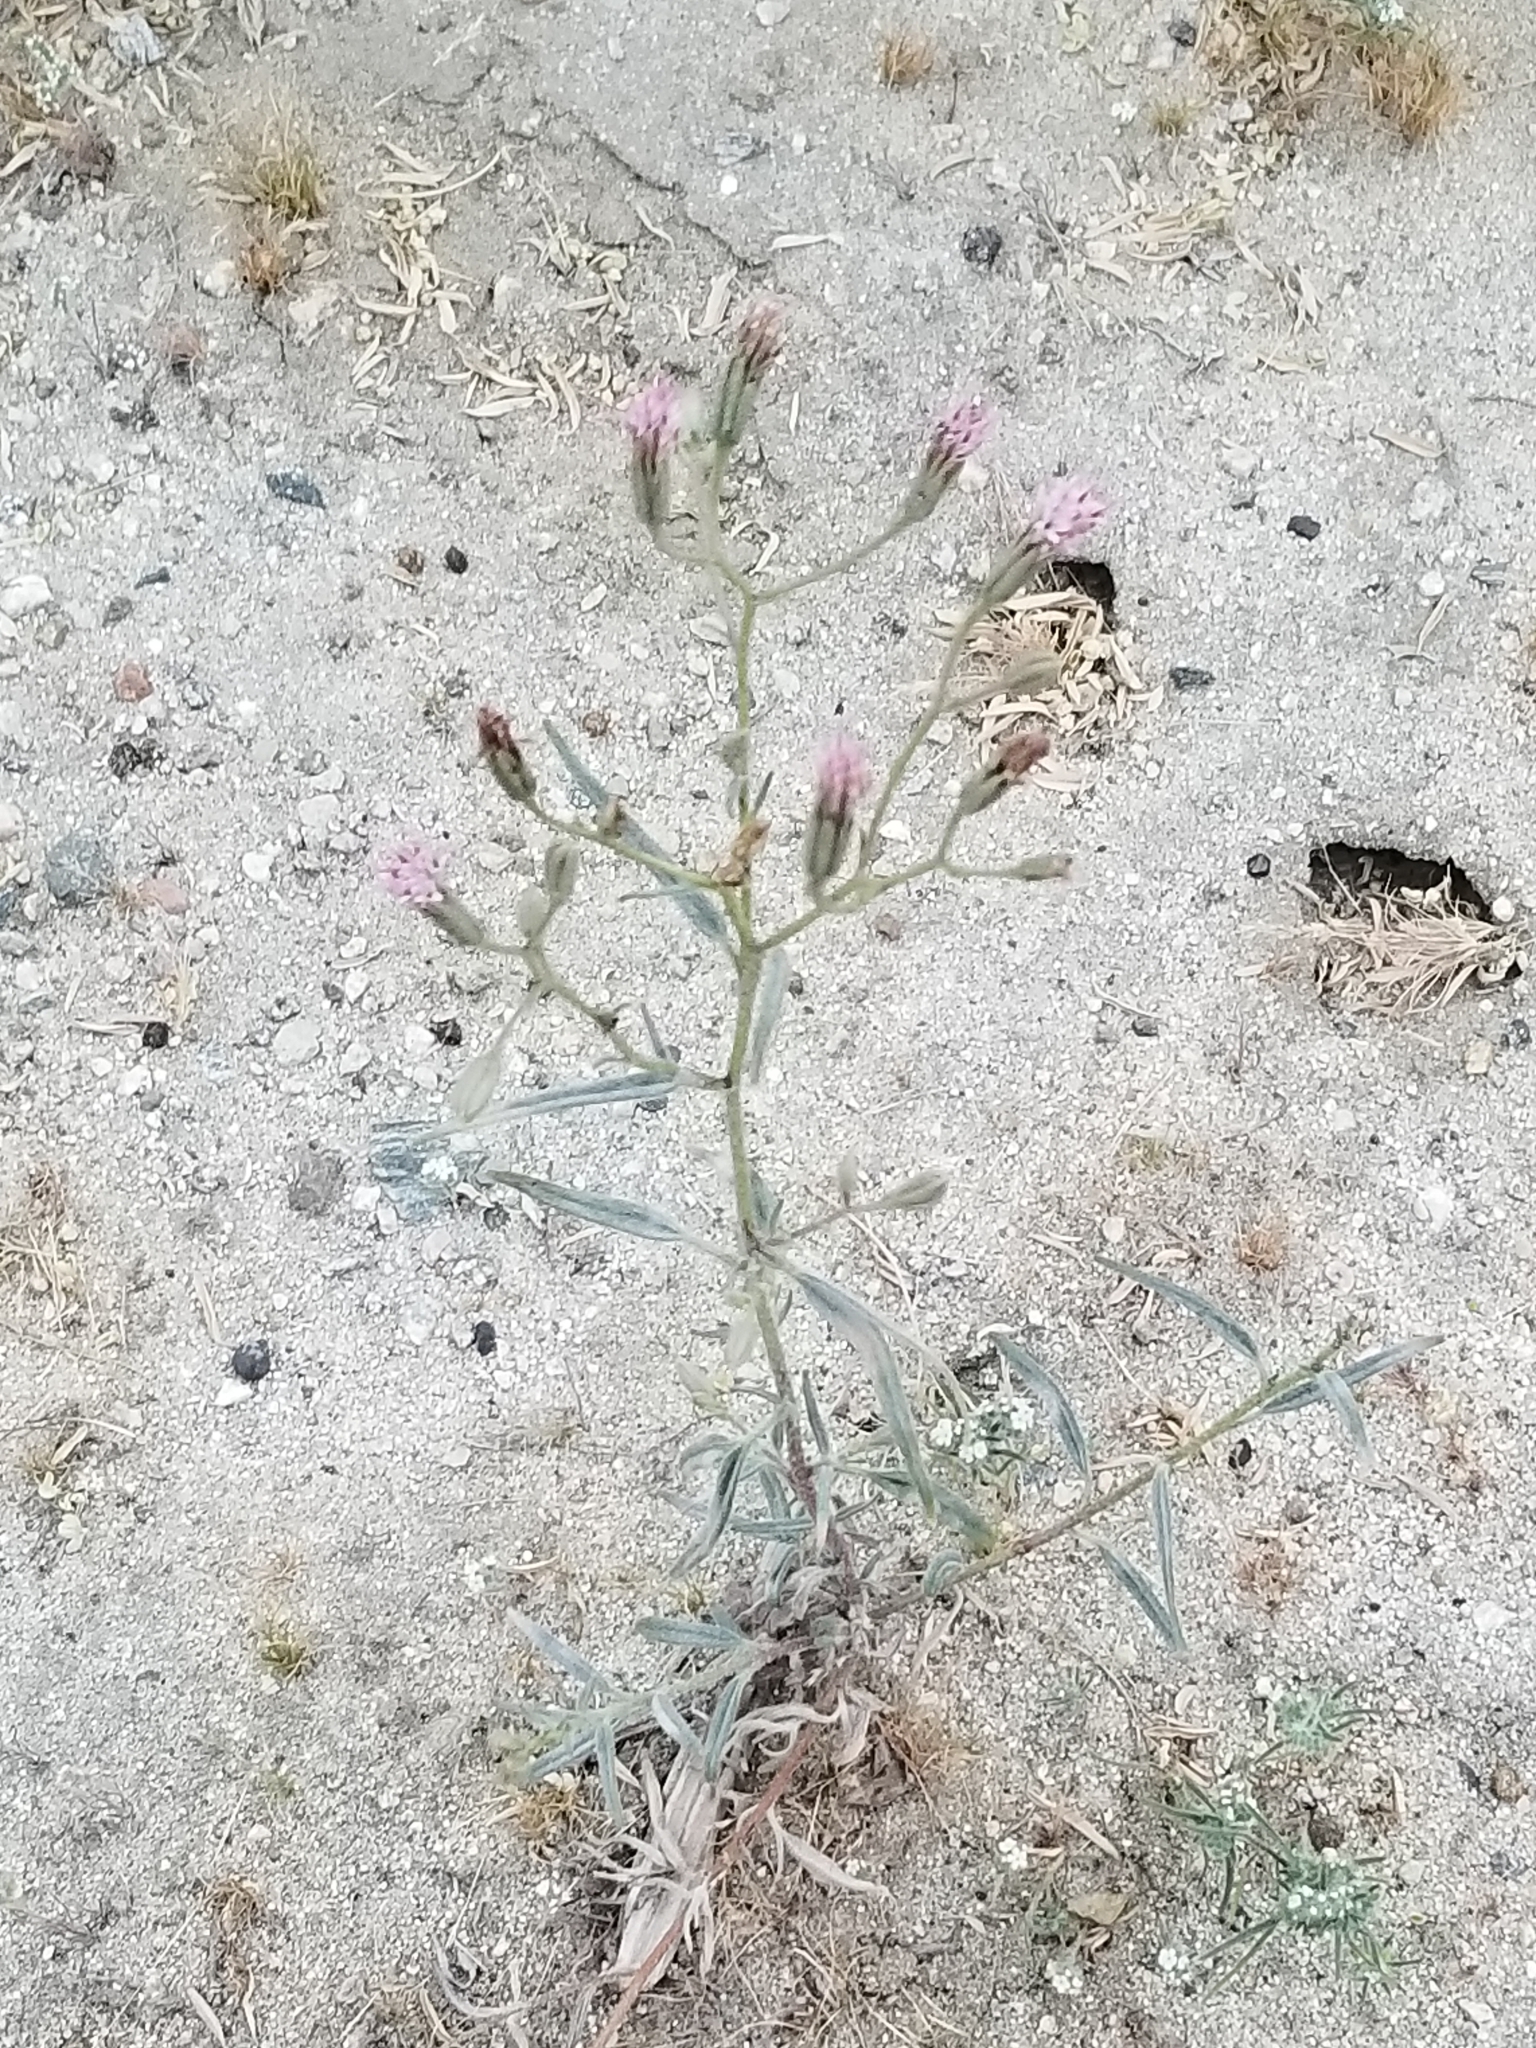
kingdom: Plantae
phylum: Tracheophyta
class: Magnoliopsida
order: Asterales
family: Asteraceae
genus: Palafoxia
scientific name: Palafoxia arida
